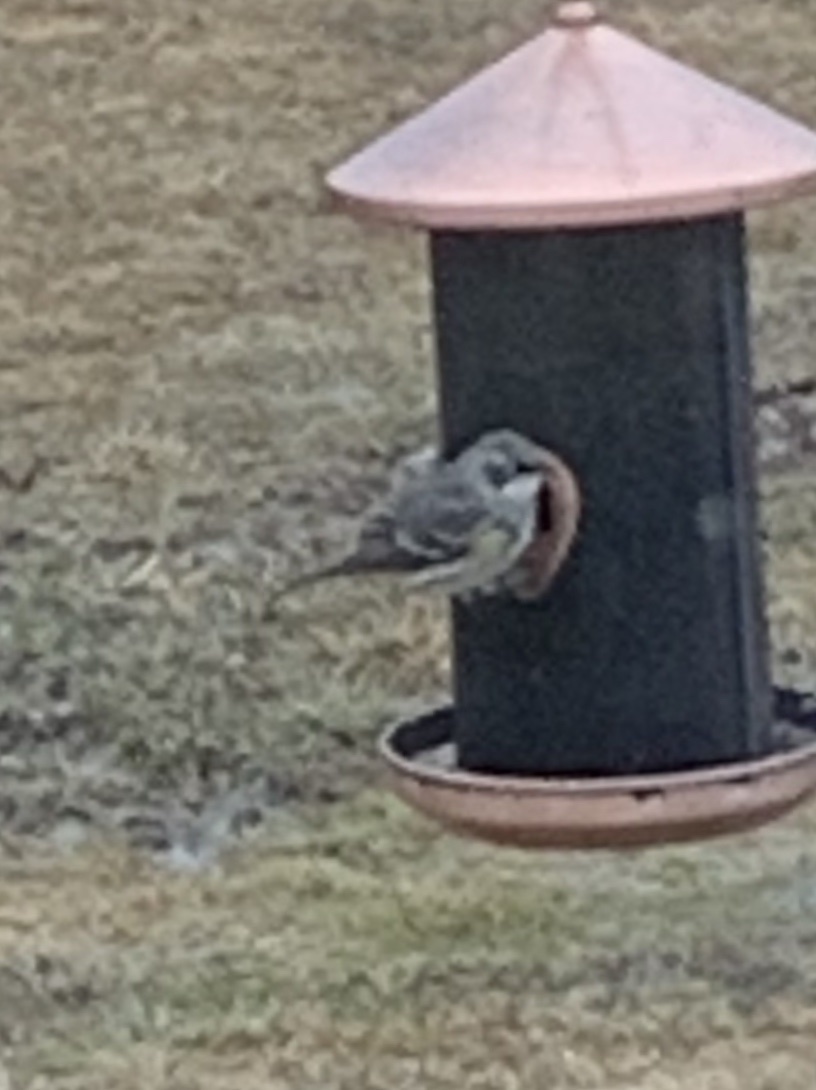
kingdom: Animalia
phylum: Chordata
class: Aves
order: Passeriformes
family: Parulidae
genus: Setophaga
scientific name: Setophaga coronata
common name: Myrtle warbler
